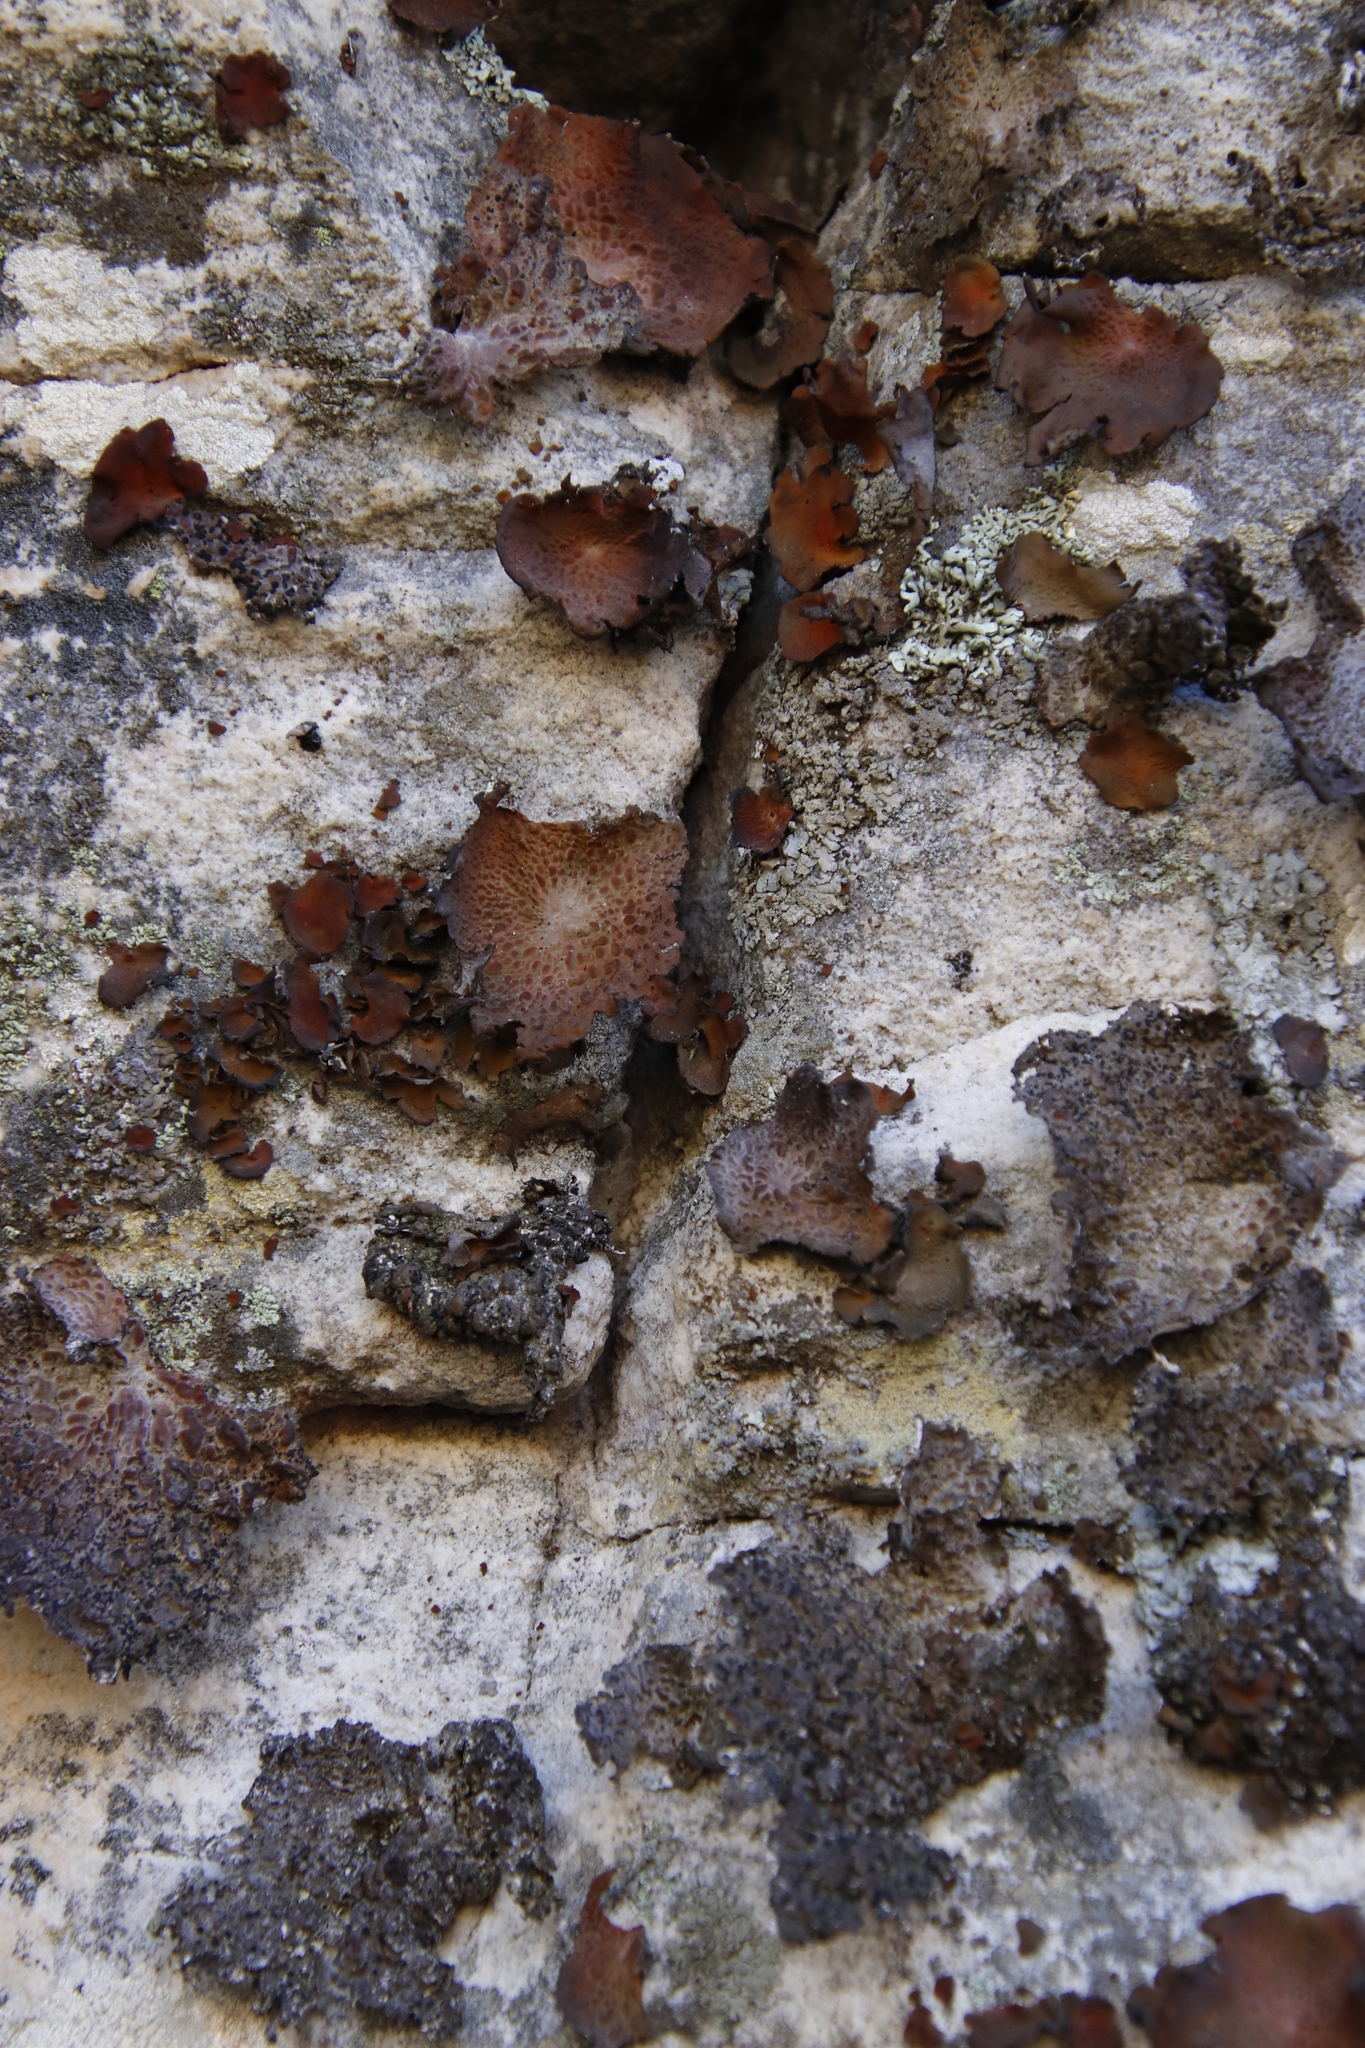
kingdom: Fungi
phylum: Ascomycota
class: Lecanoromycetes
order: Umbilicariales
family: Umbilicariaceae
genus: Lasallia
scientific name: Lasallia rubiginosa
